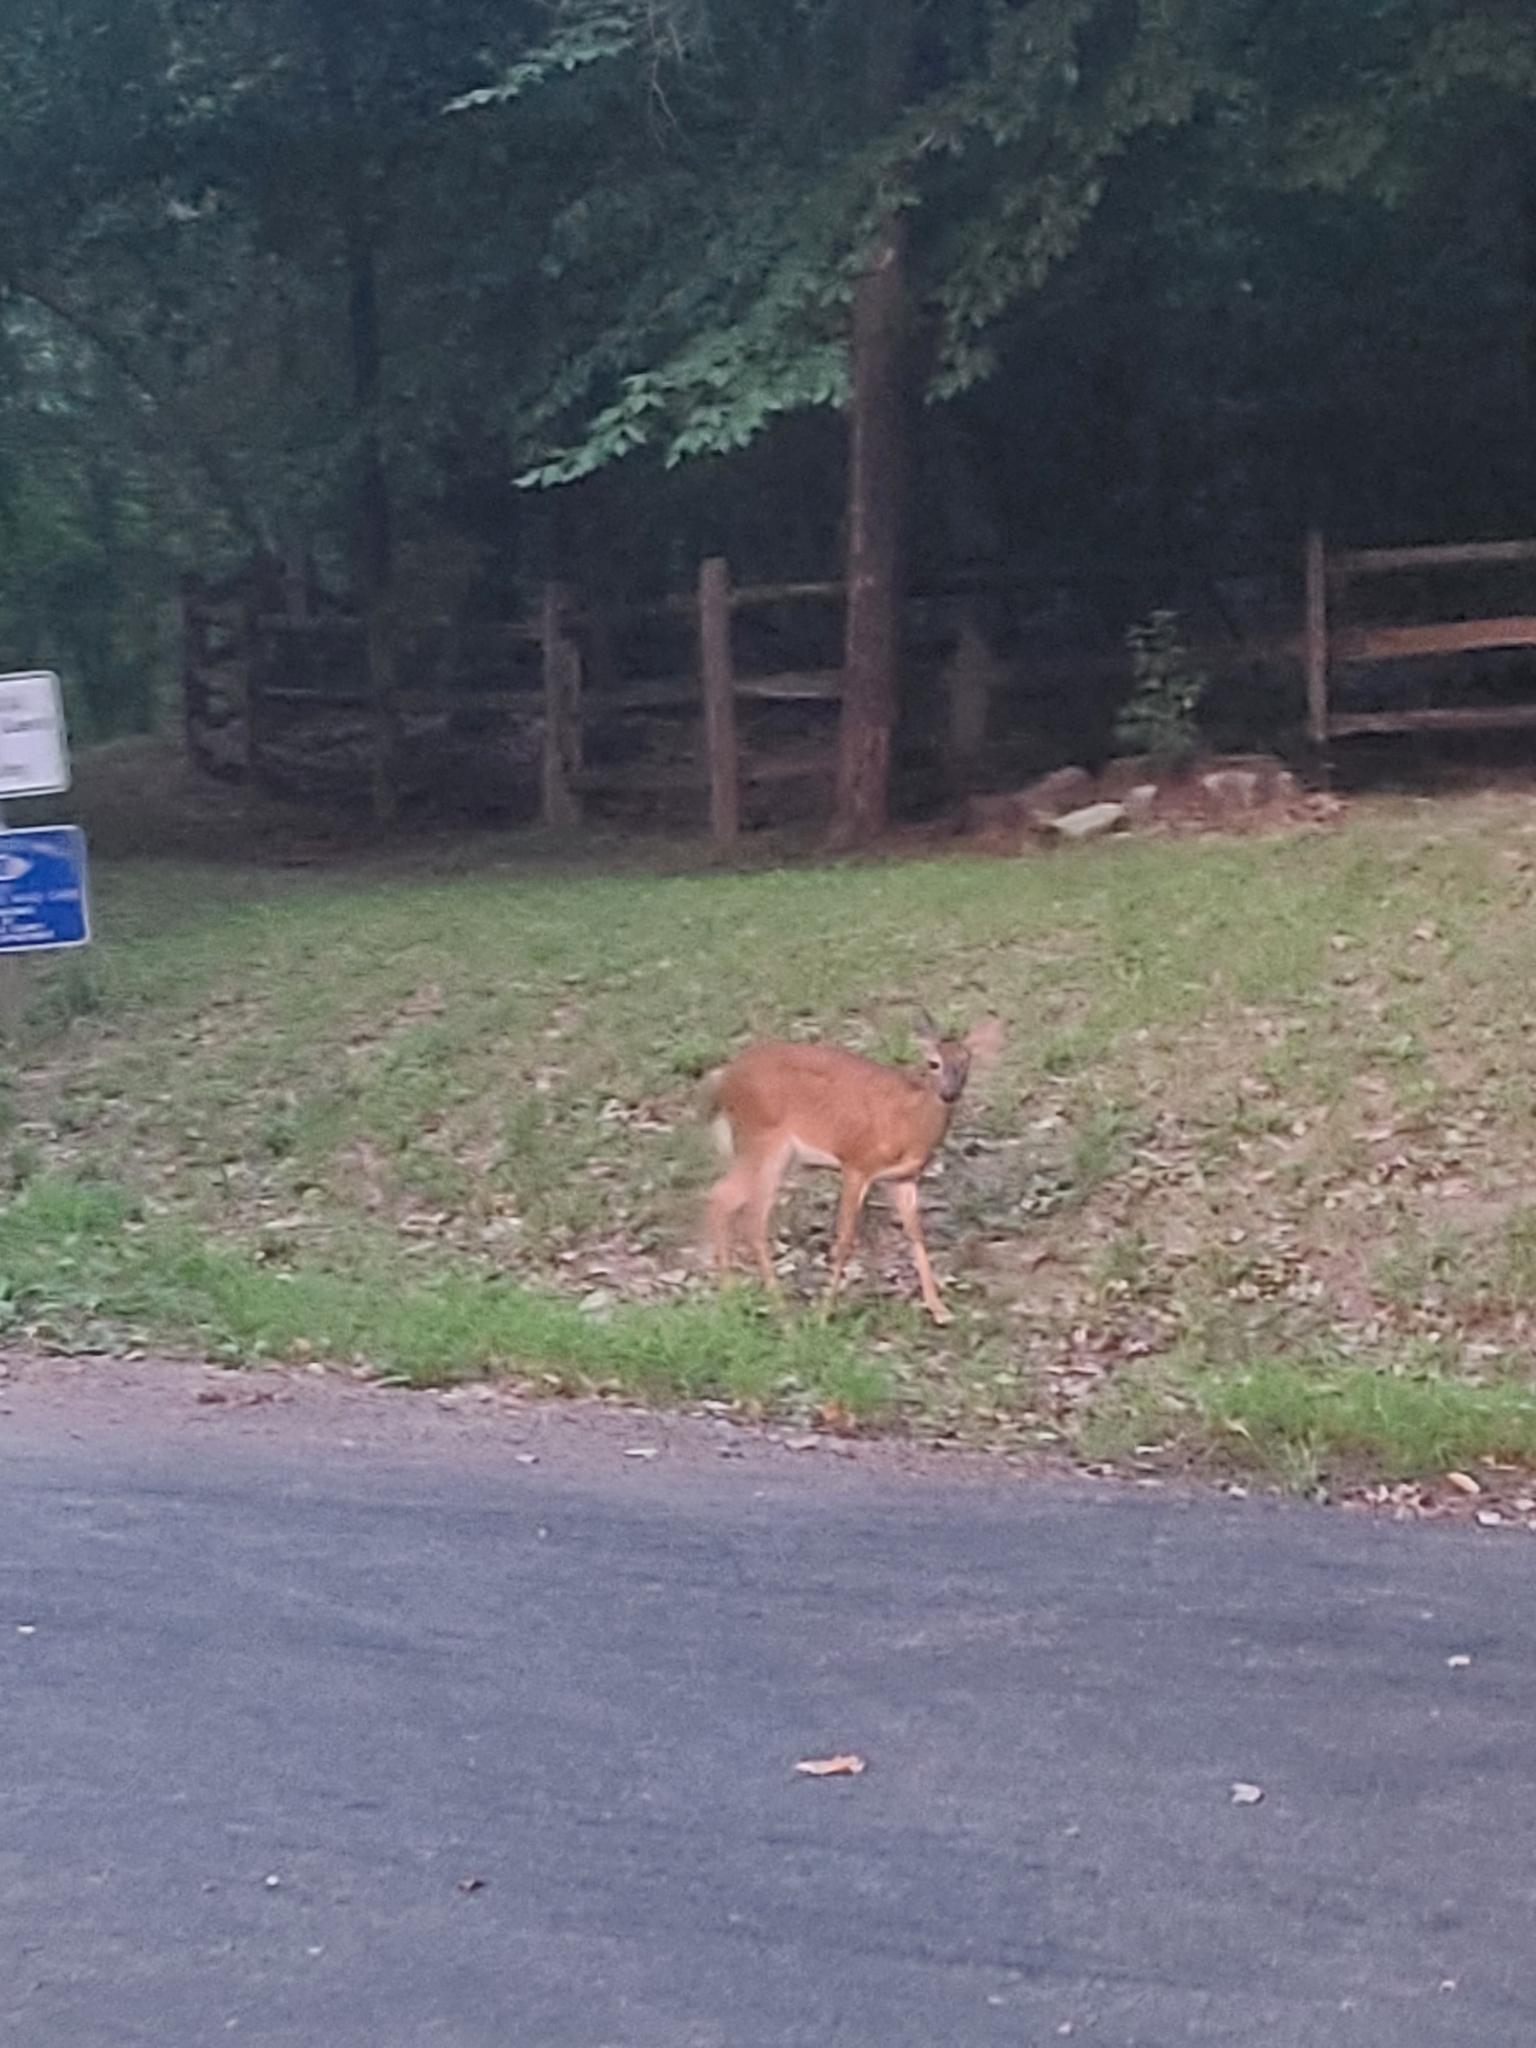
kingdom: Animalia
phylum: Chordata
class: Mammalia
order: Artiodactyla
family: Cervidae
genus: Odocoileus
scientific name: Odocoileus virginianus
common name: White-tailed deer
